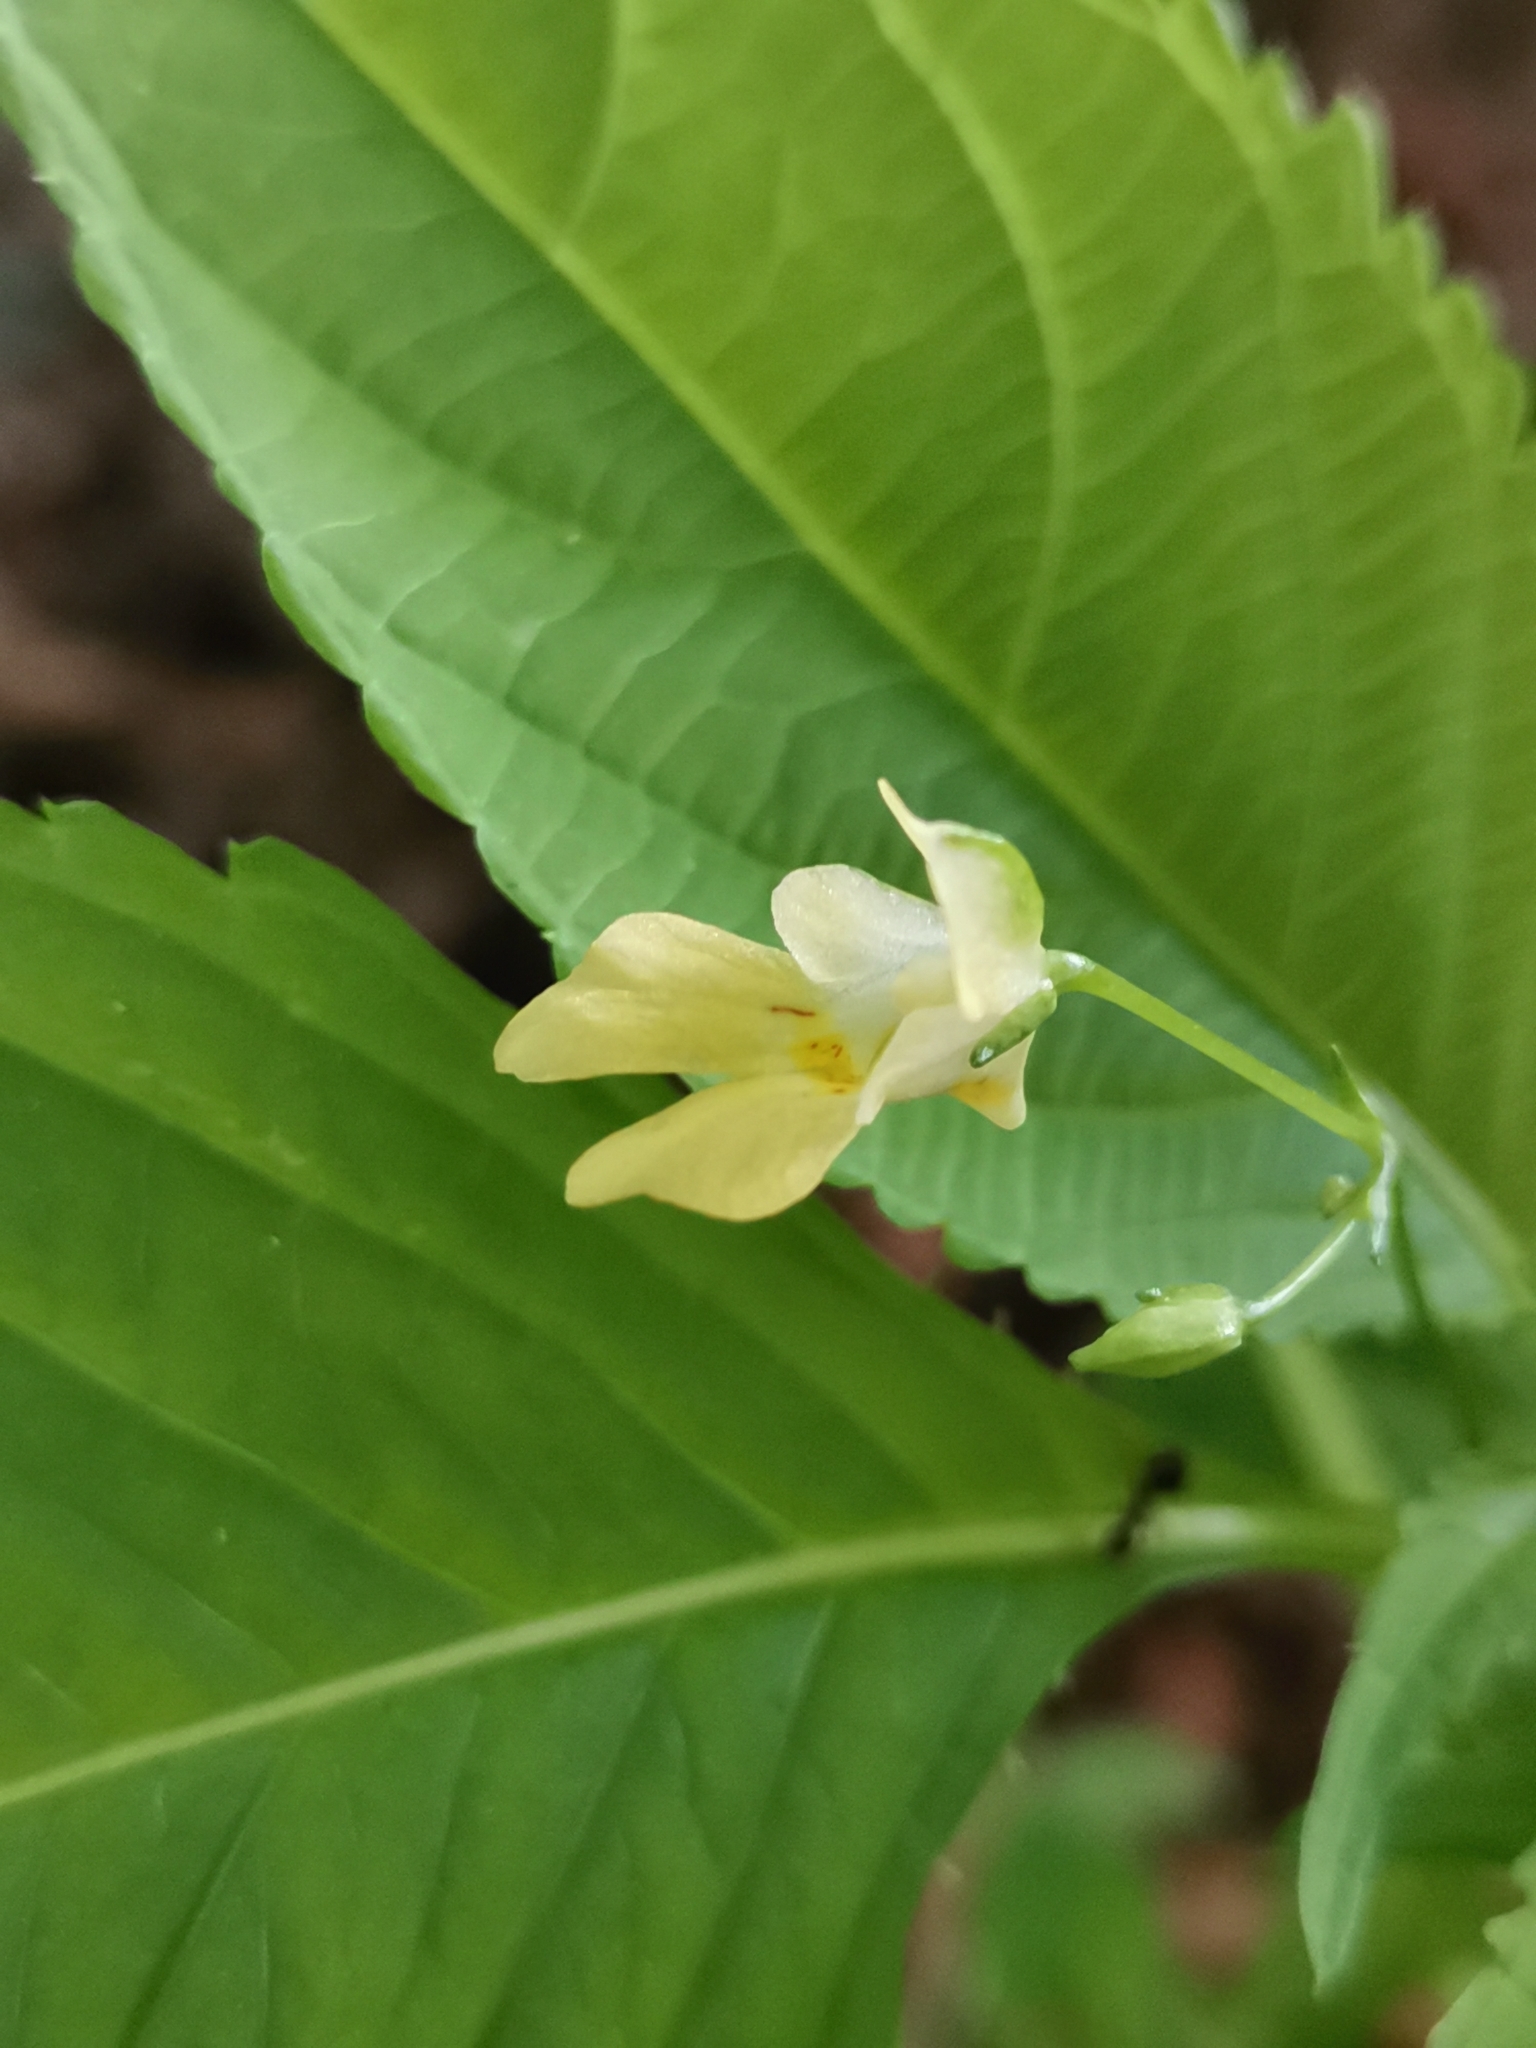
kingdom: Plantae
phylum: Tracheophyta
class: Magnoliopsida
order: Ericales
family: Balsaminaceae
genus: Impatiens
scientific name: Impatiens parviflora
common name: Small balsam
